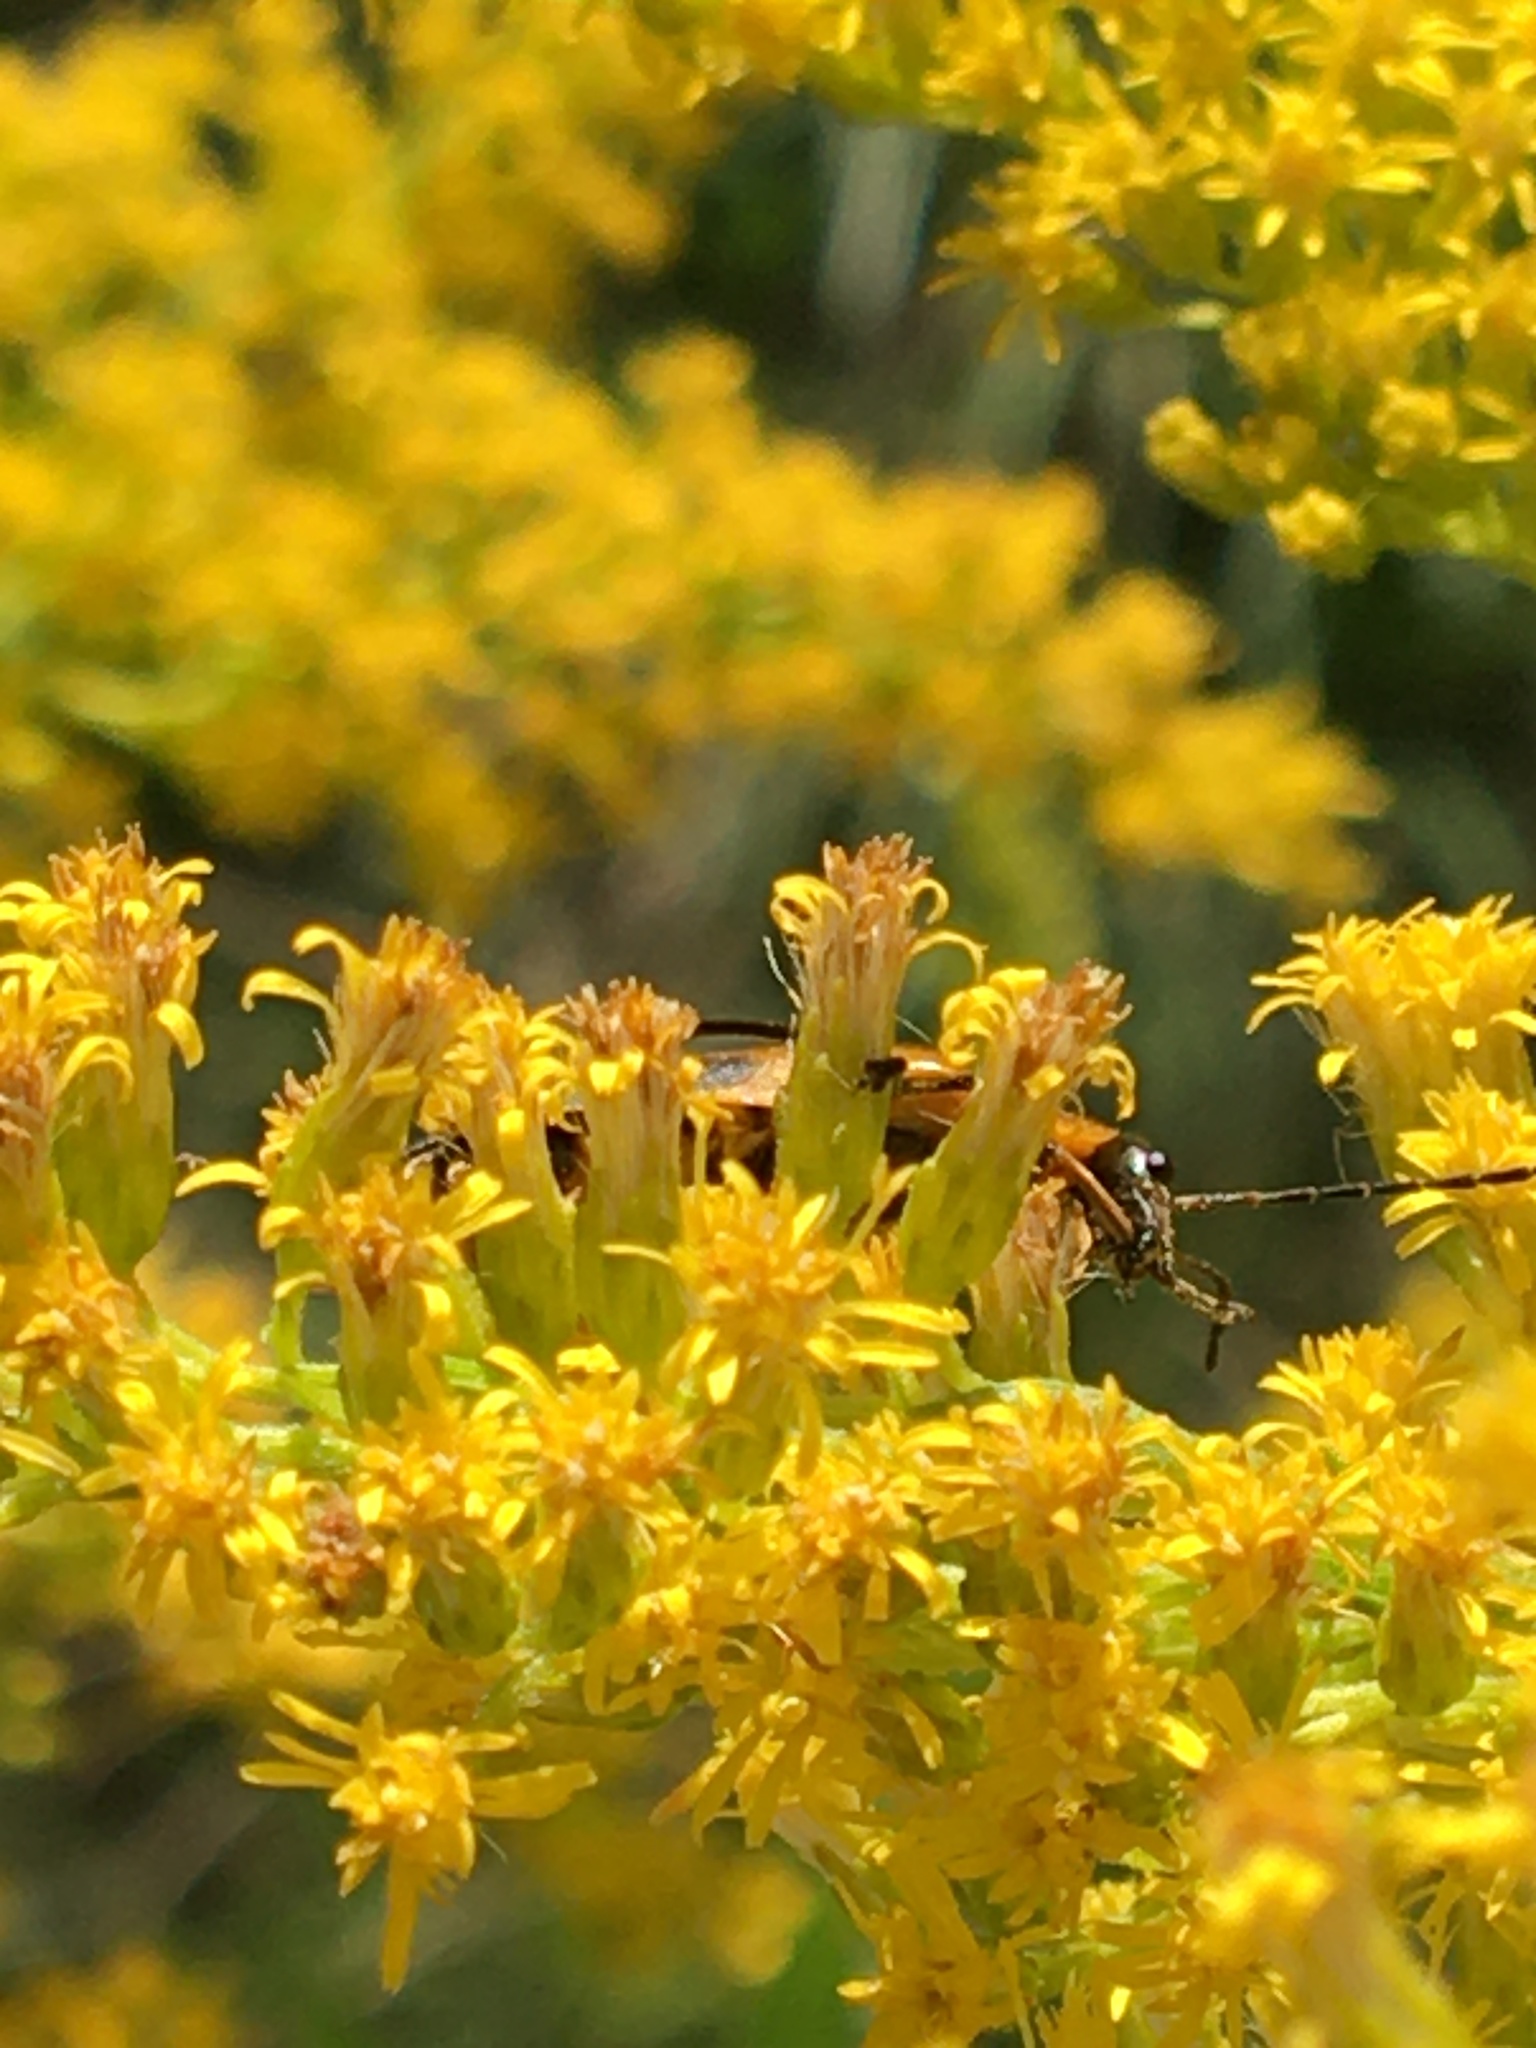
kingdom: Animalia
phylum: Arthropoda
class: Insecta
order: Coleoptera
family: Cantharidae
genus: Chauliognathus
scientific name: Chauliognathus pensylvanicus
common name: Goldenrod soldier beetle
